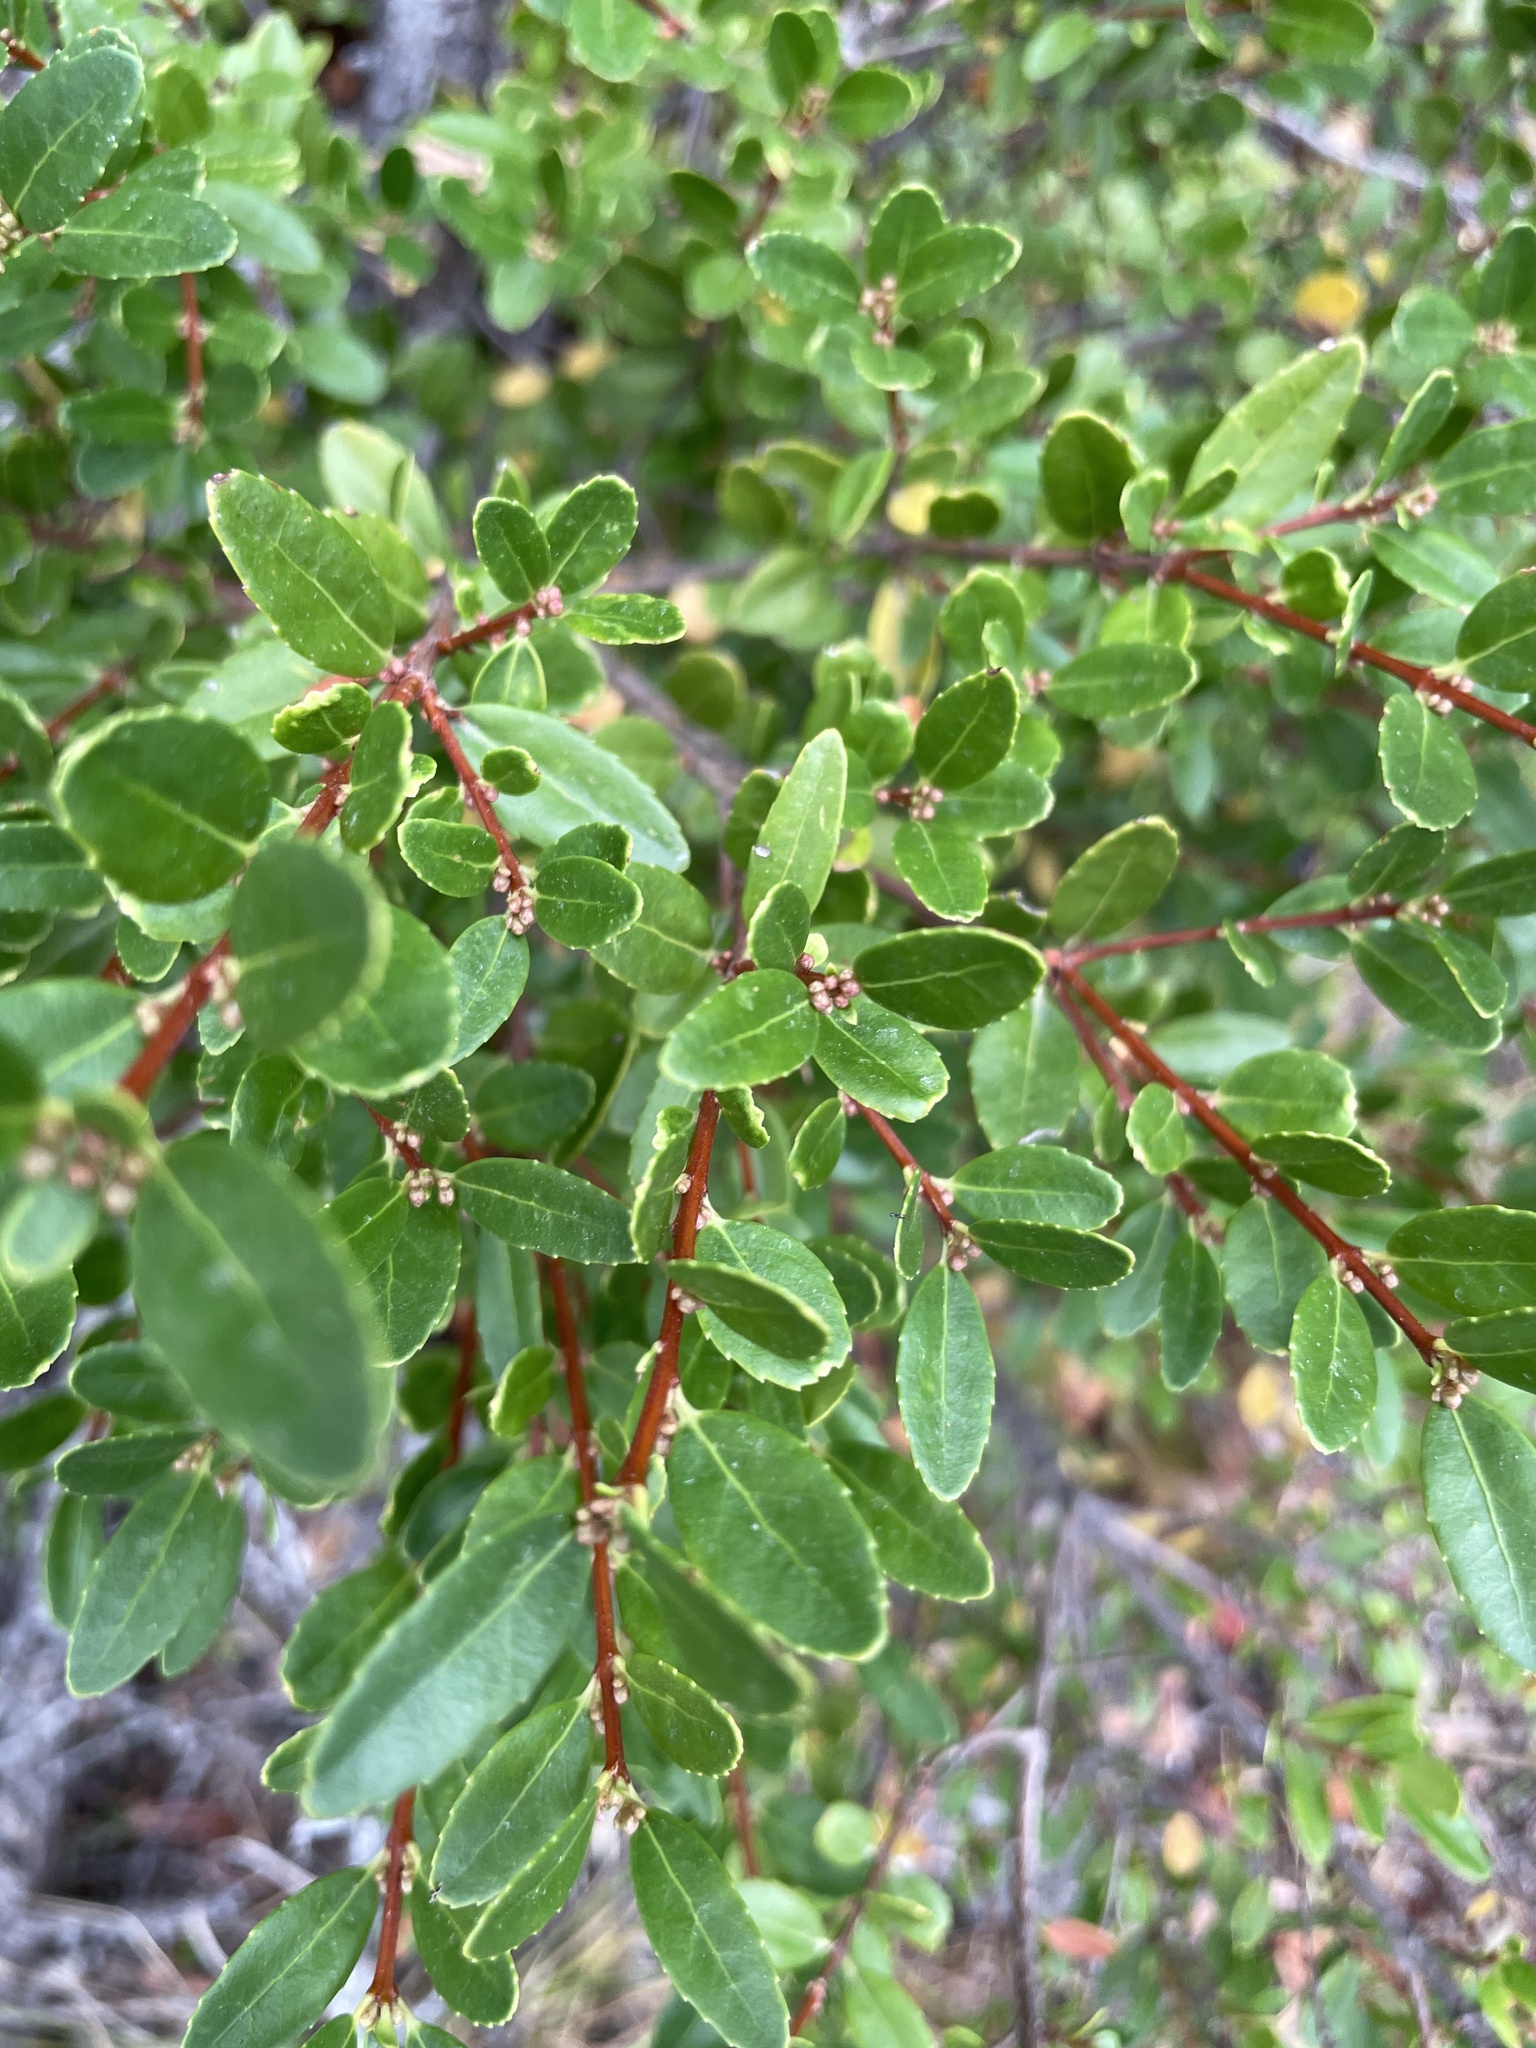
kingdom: Plantae
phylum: Tracheophyta
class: Magnoliopsida
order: Celastrales
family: Celastraceae
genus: Paxistima
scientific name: Paxistima myrsinites
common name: Mountain-lover
